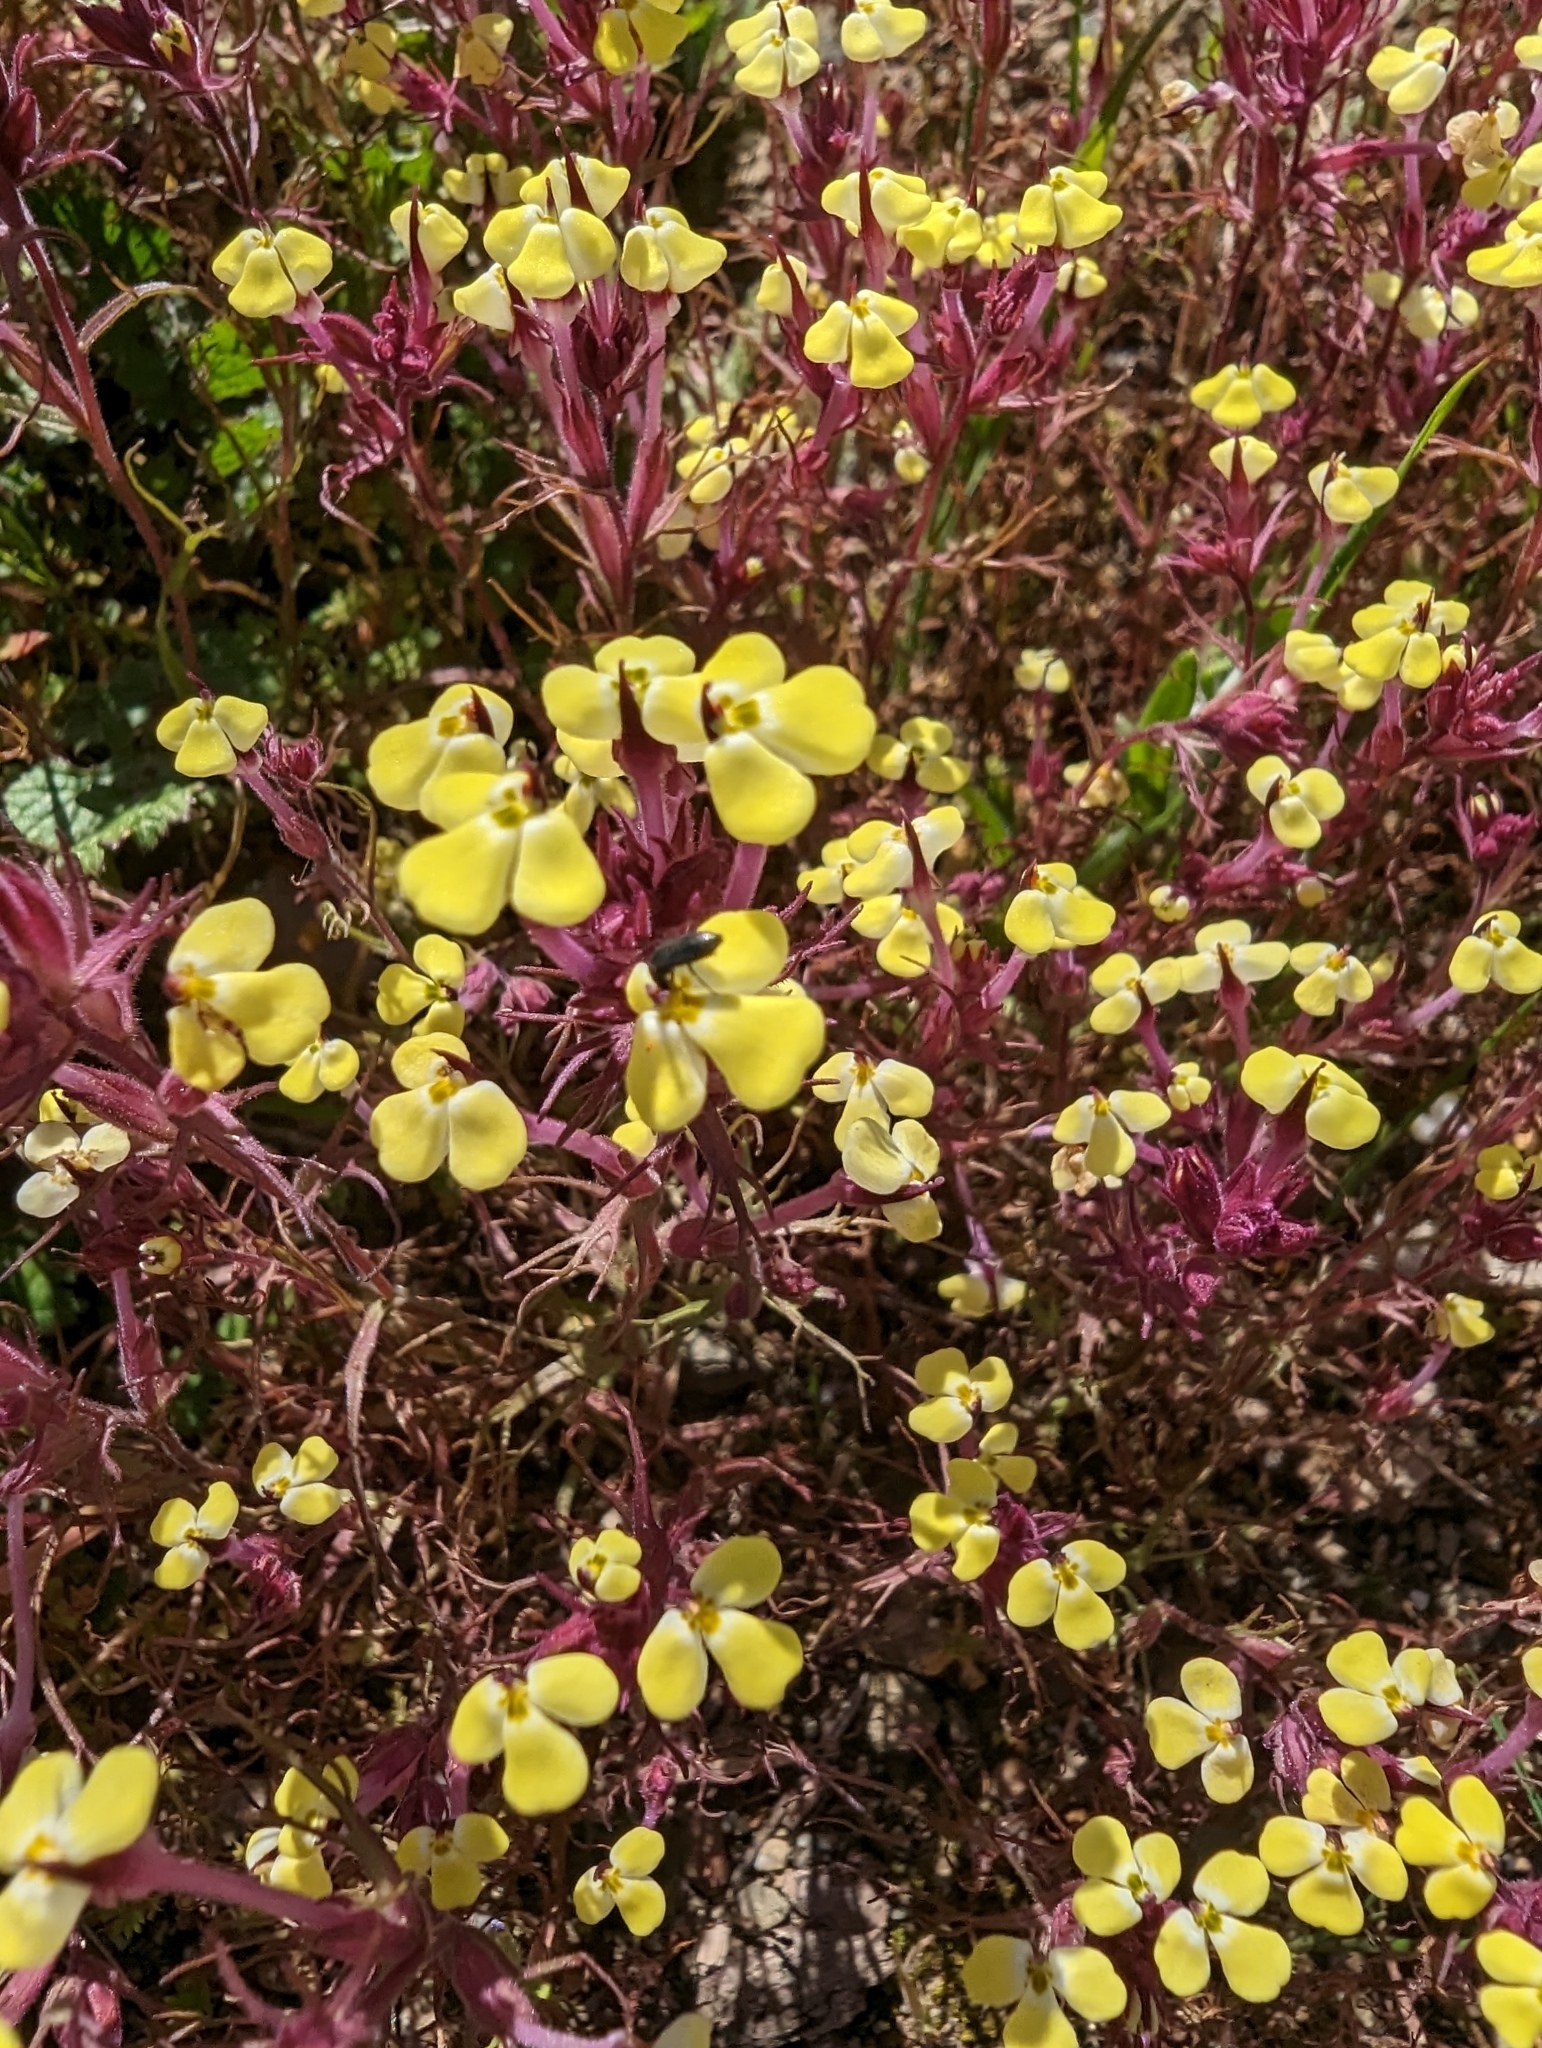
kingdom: Plantae
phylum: Tracheophyta
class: Magnoliopsida
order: Lamiales
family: Orobanchaceae
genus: Triphysaria
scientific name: Triphysaria eriantha
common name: Johnny-tuck
